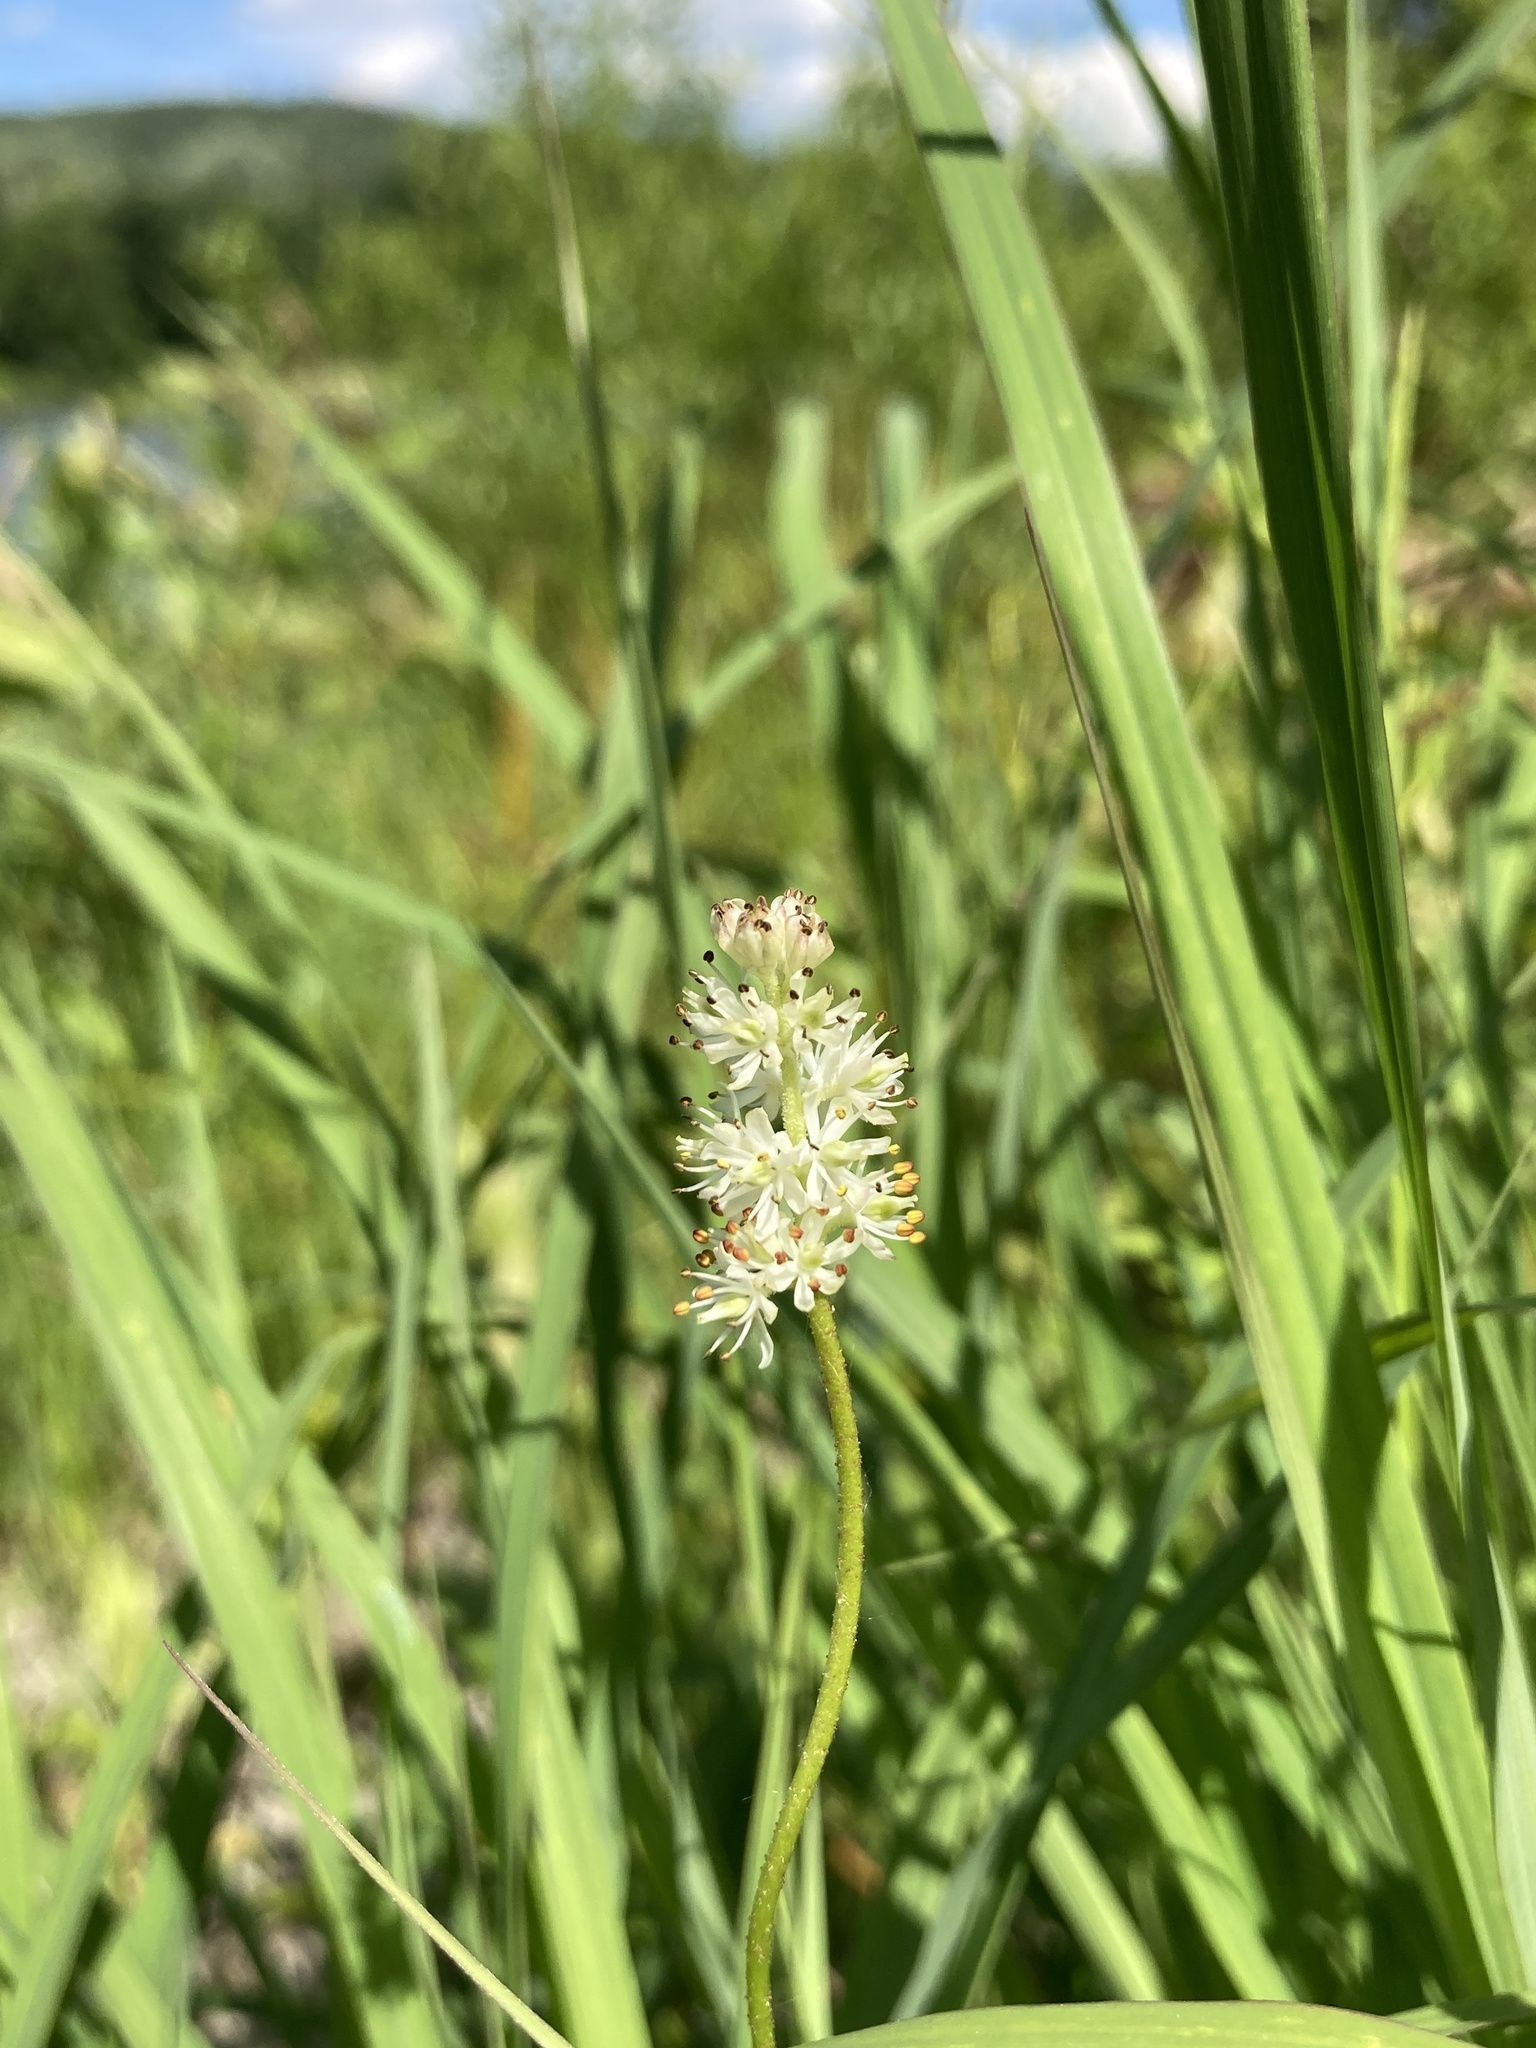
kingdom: Plantae
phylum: Tracheophyta
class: Liliopsida
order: Alismatales
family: Tofieldiaceae
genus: Triantha
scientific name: Triantha glutinosa
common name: Glutinous tofieldia
